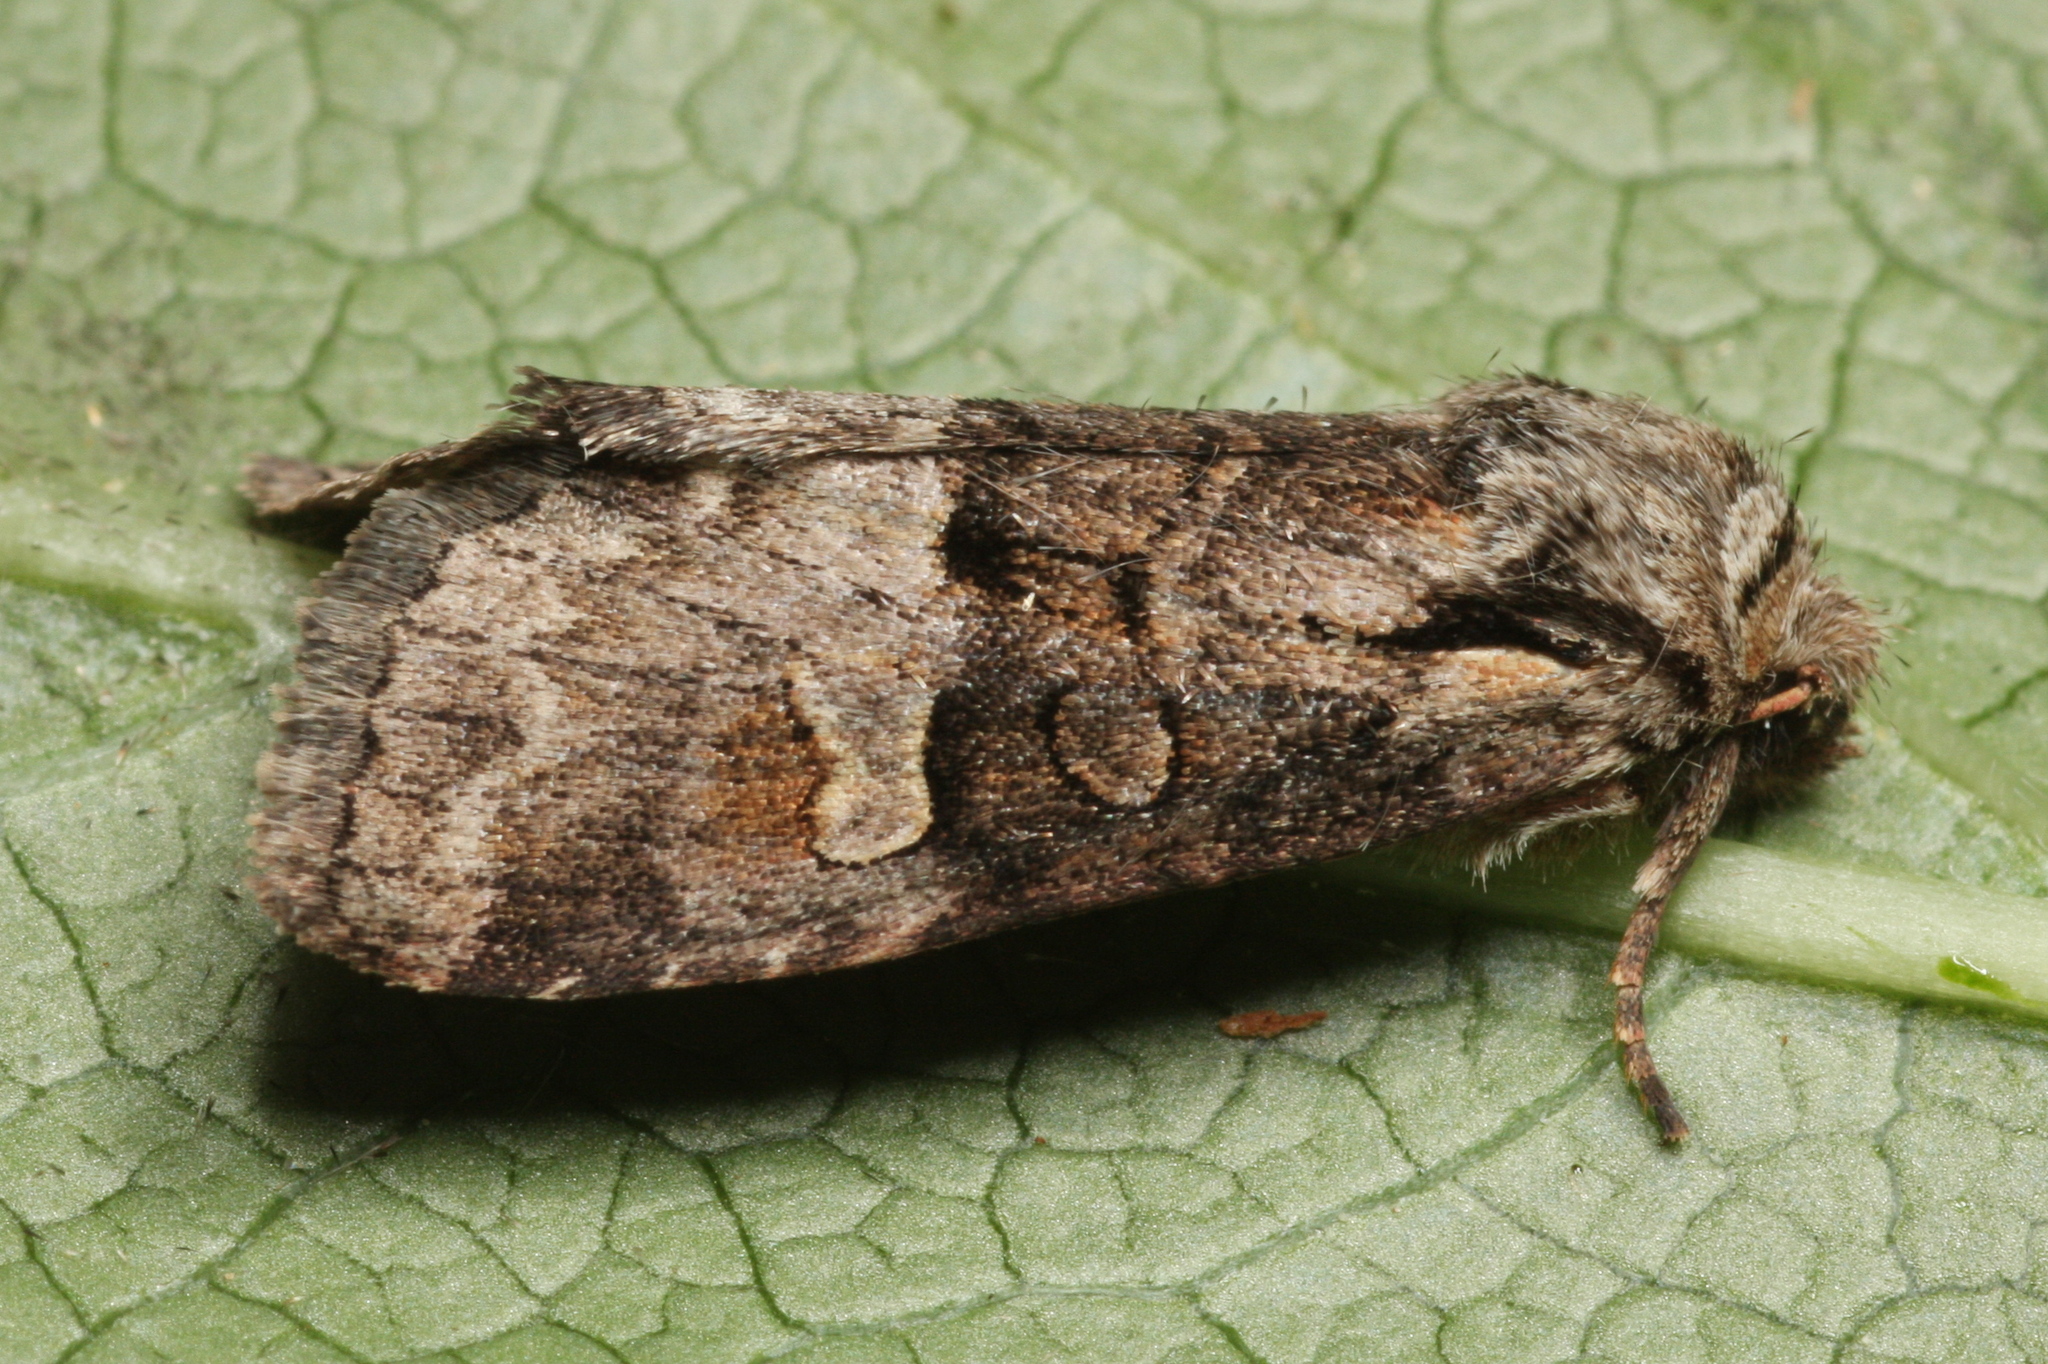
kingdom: Animalia
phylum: Arthropoda
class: Insecta
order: Lepidoptera
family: Noctuidae
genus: Brachylomia
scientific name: Brachylomia viminalis
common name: Minor shoulder-knot
